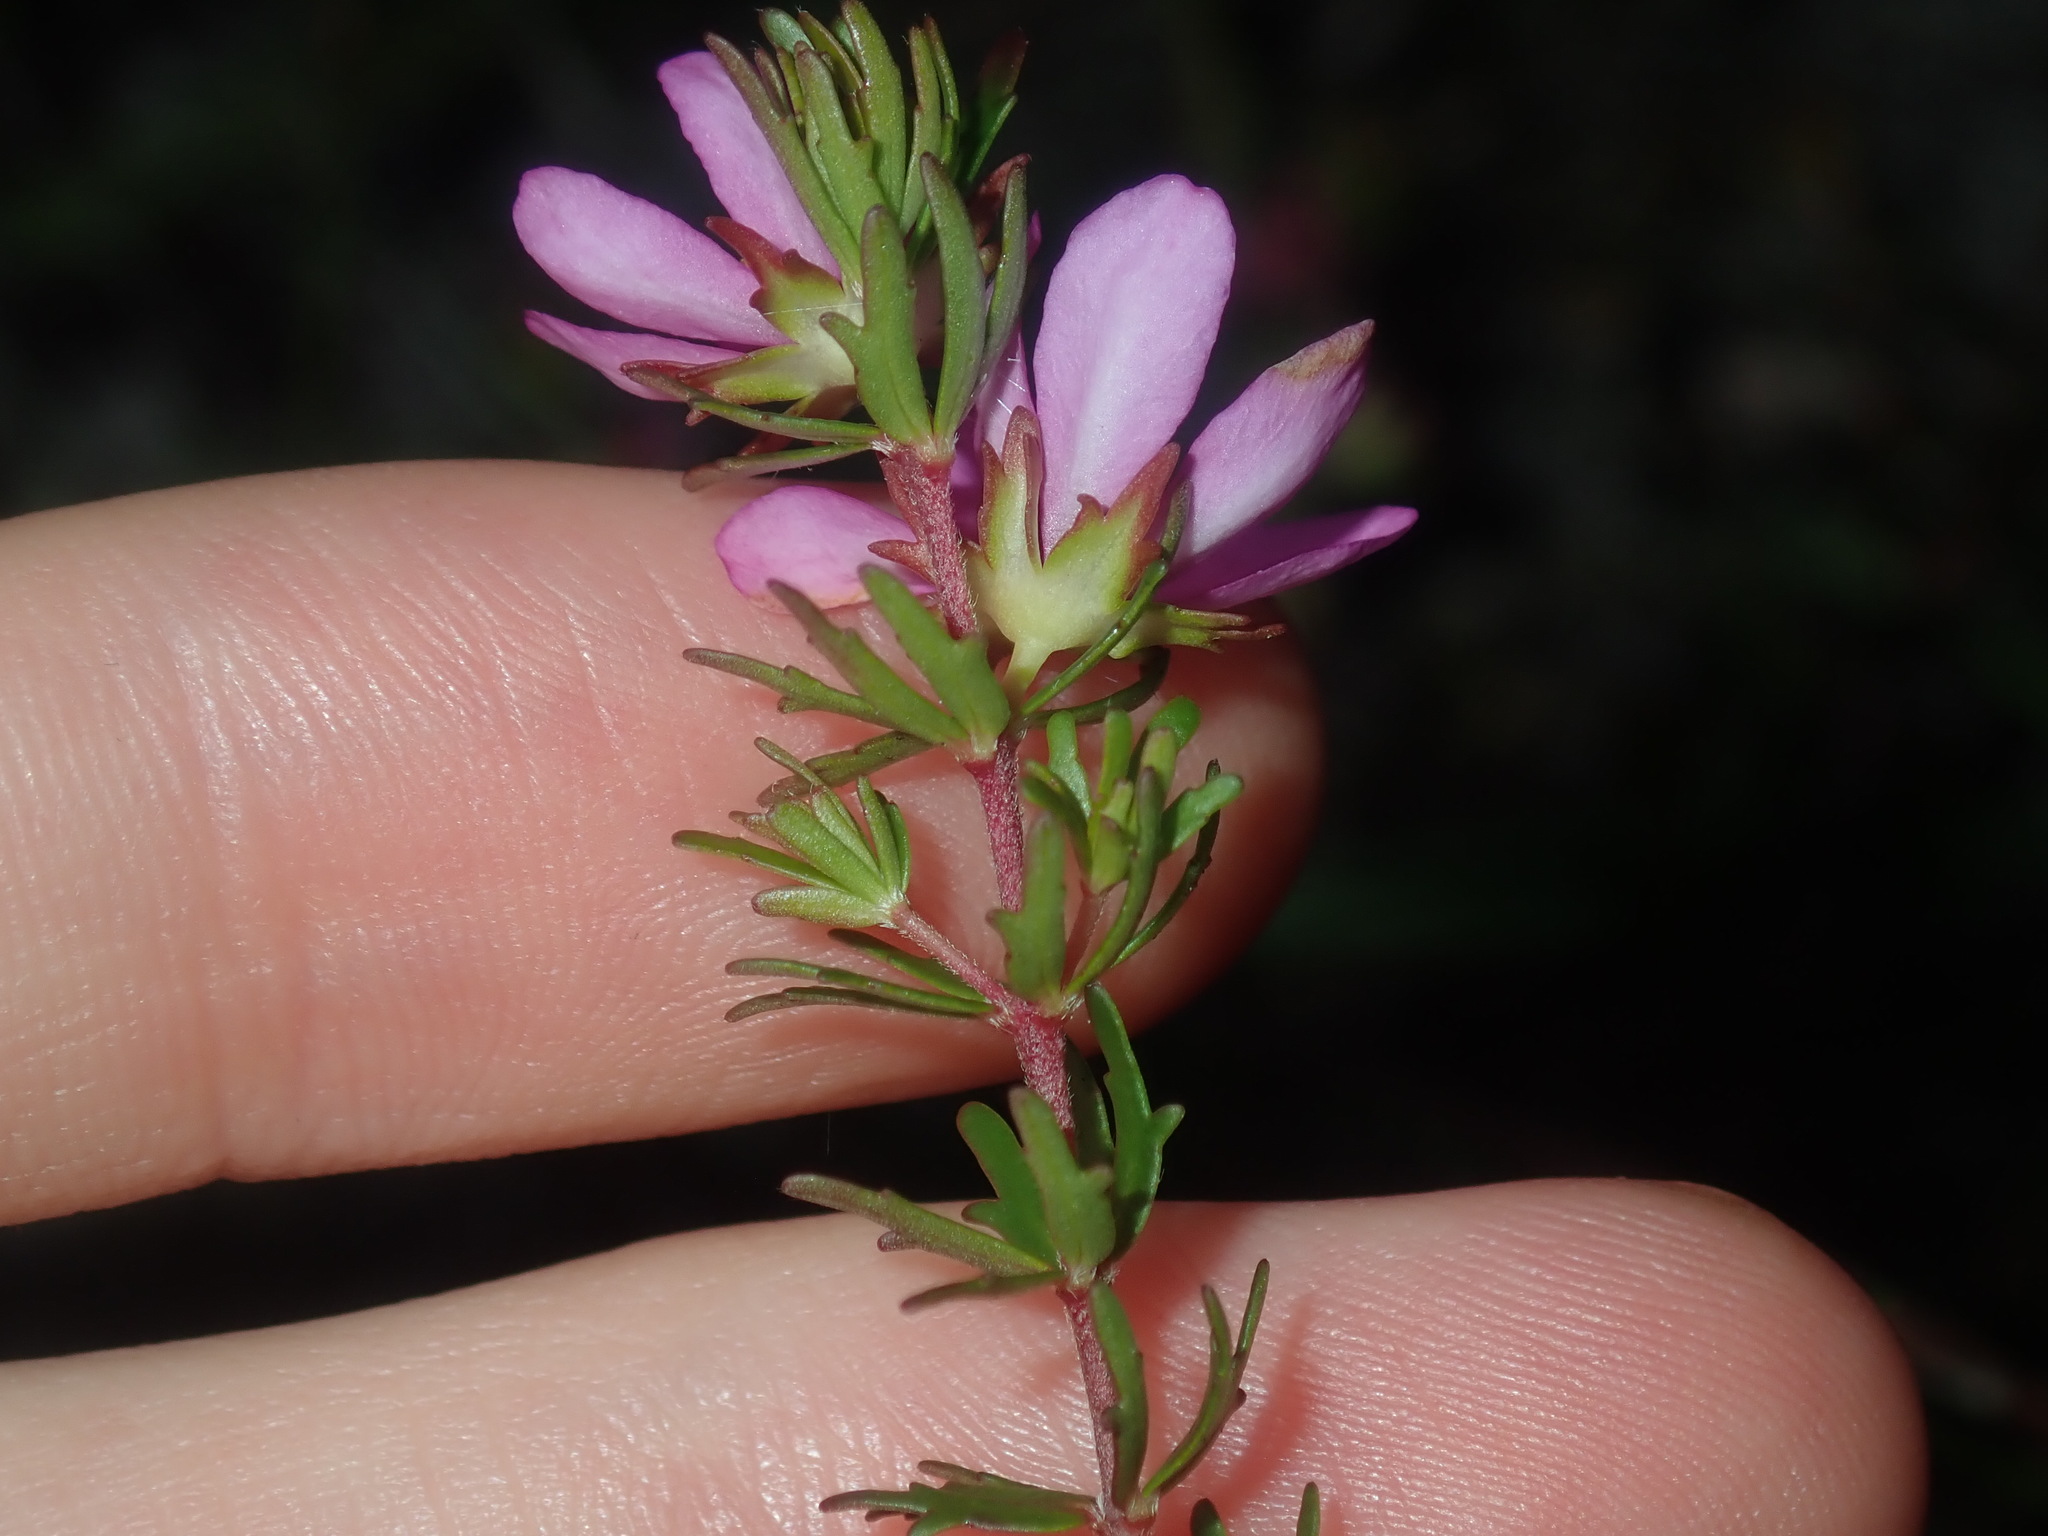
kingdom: Plantae
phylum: Tracheophyta
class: Magnoliopsida
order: Oxalidales
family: Cunoniaceae
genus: Bauera
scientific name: Bauera capitata
